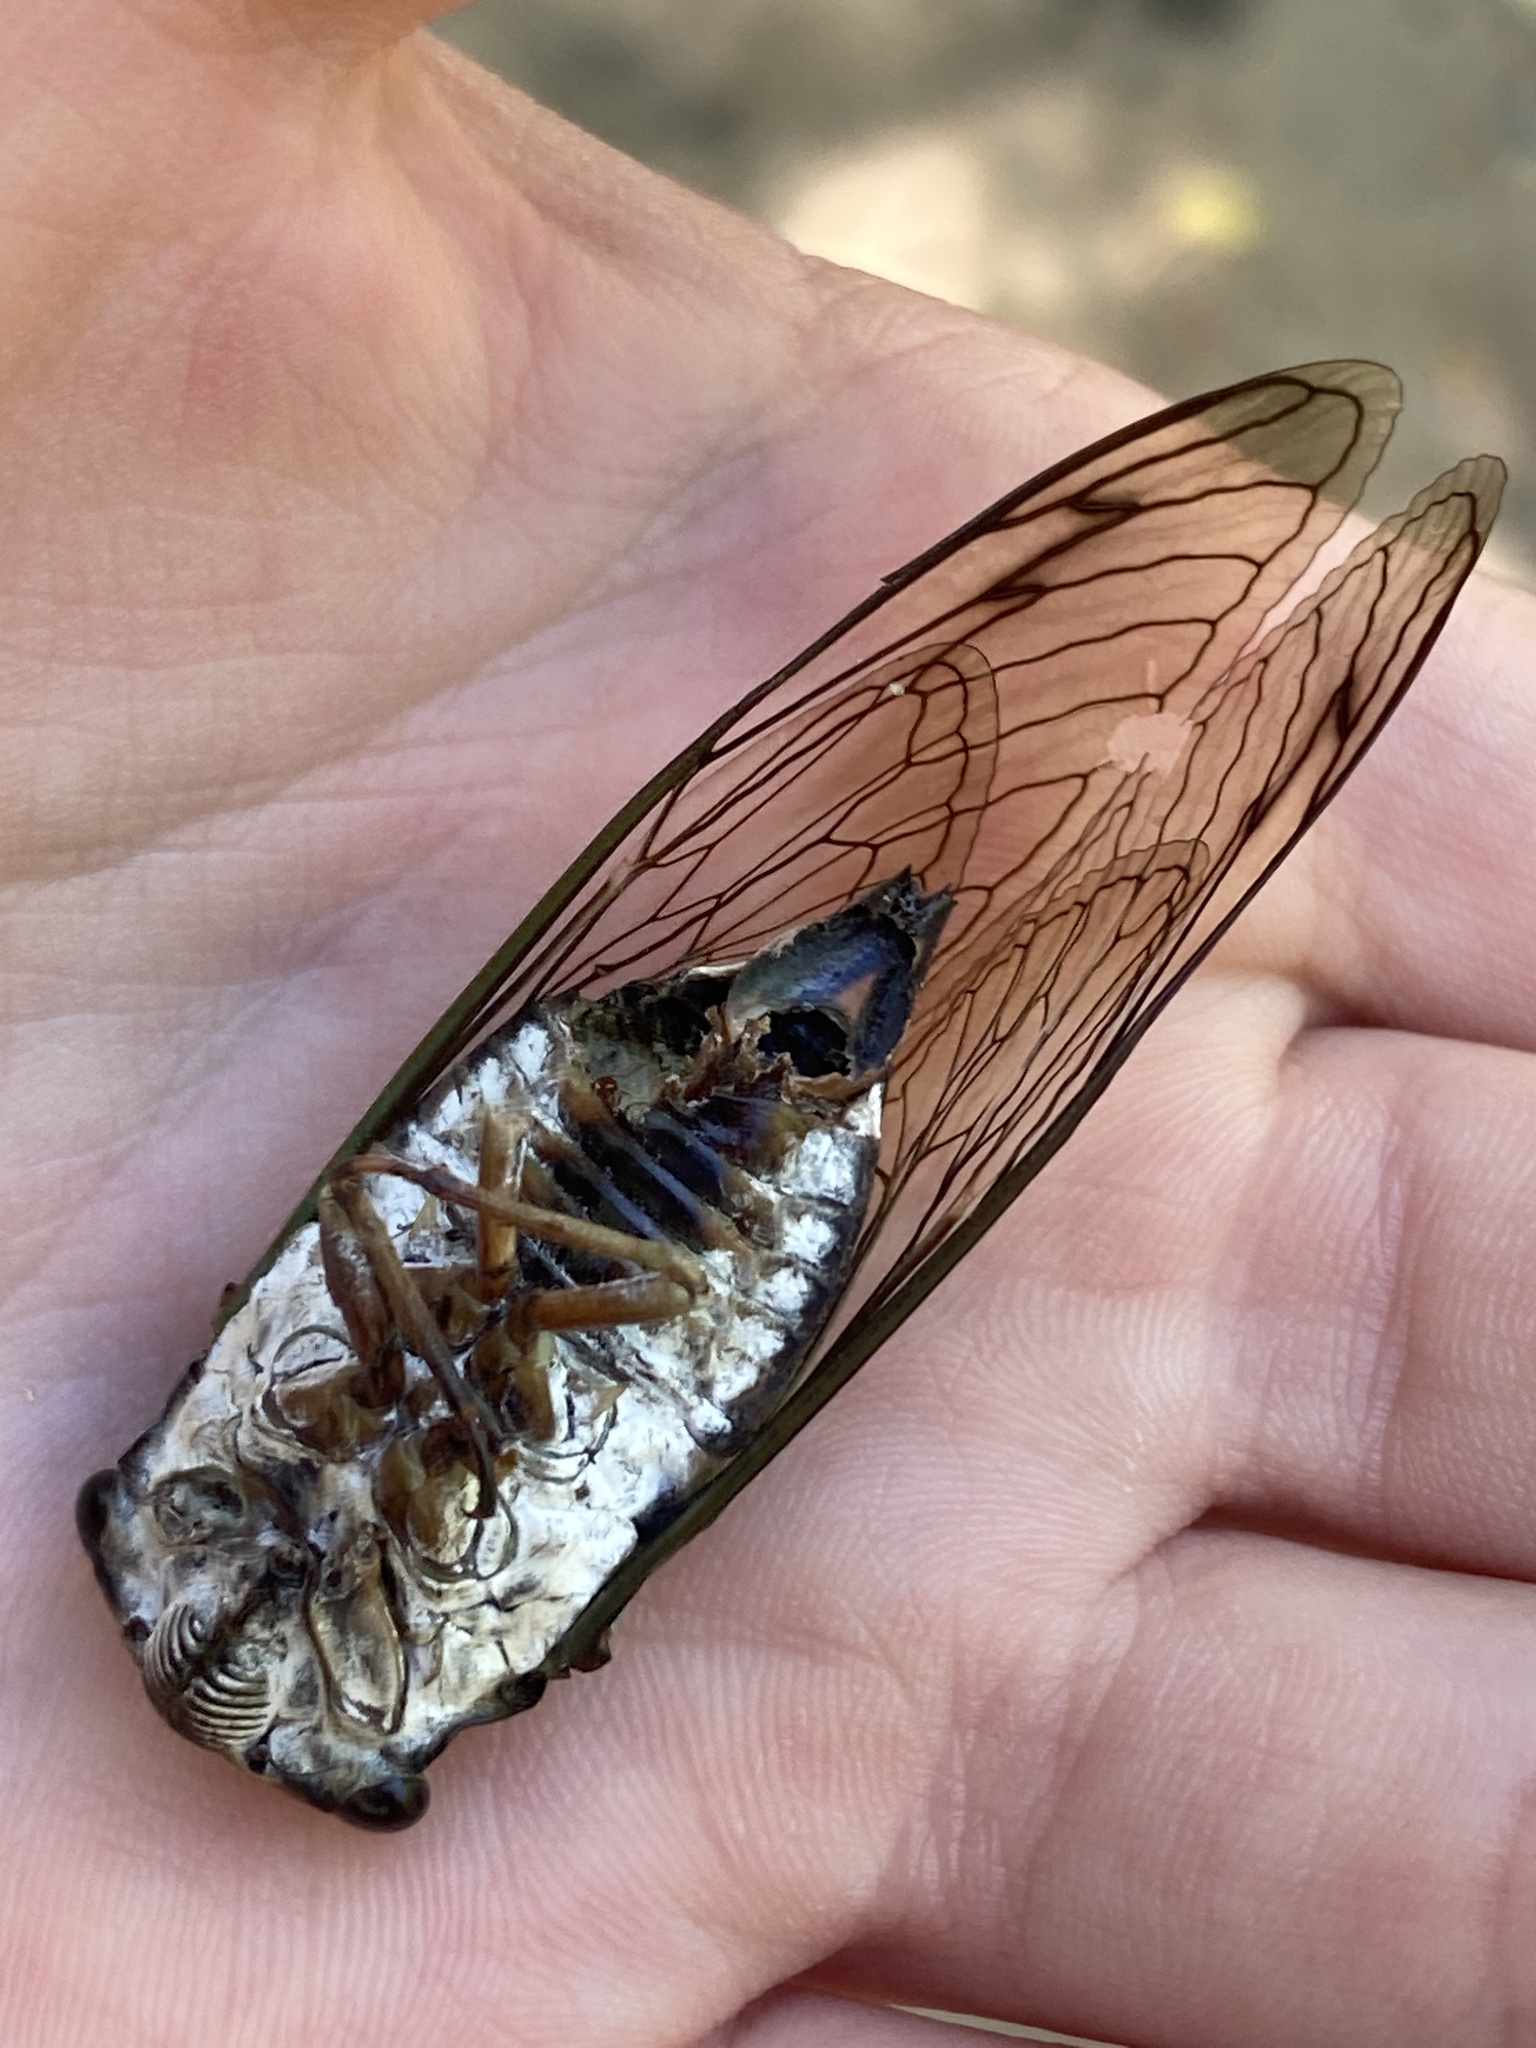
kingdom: Animalia
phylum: Arthropoda
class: Insecta
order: Hemiptera
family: Cicadidae
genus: Neotibicen
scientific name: Neotibicen lyricen
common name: Lyric cicada
